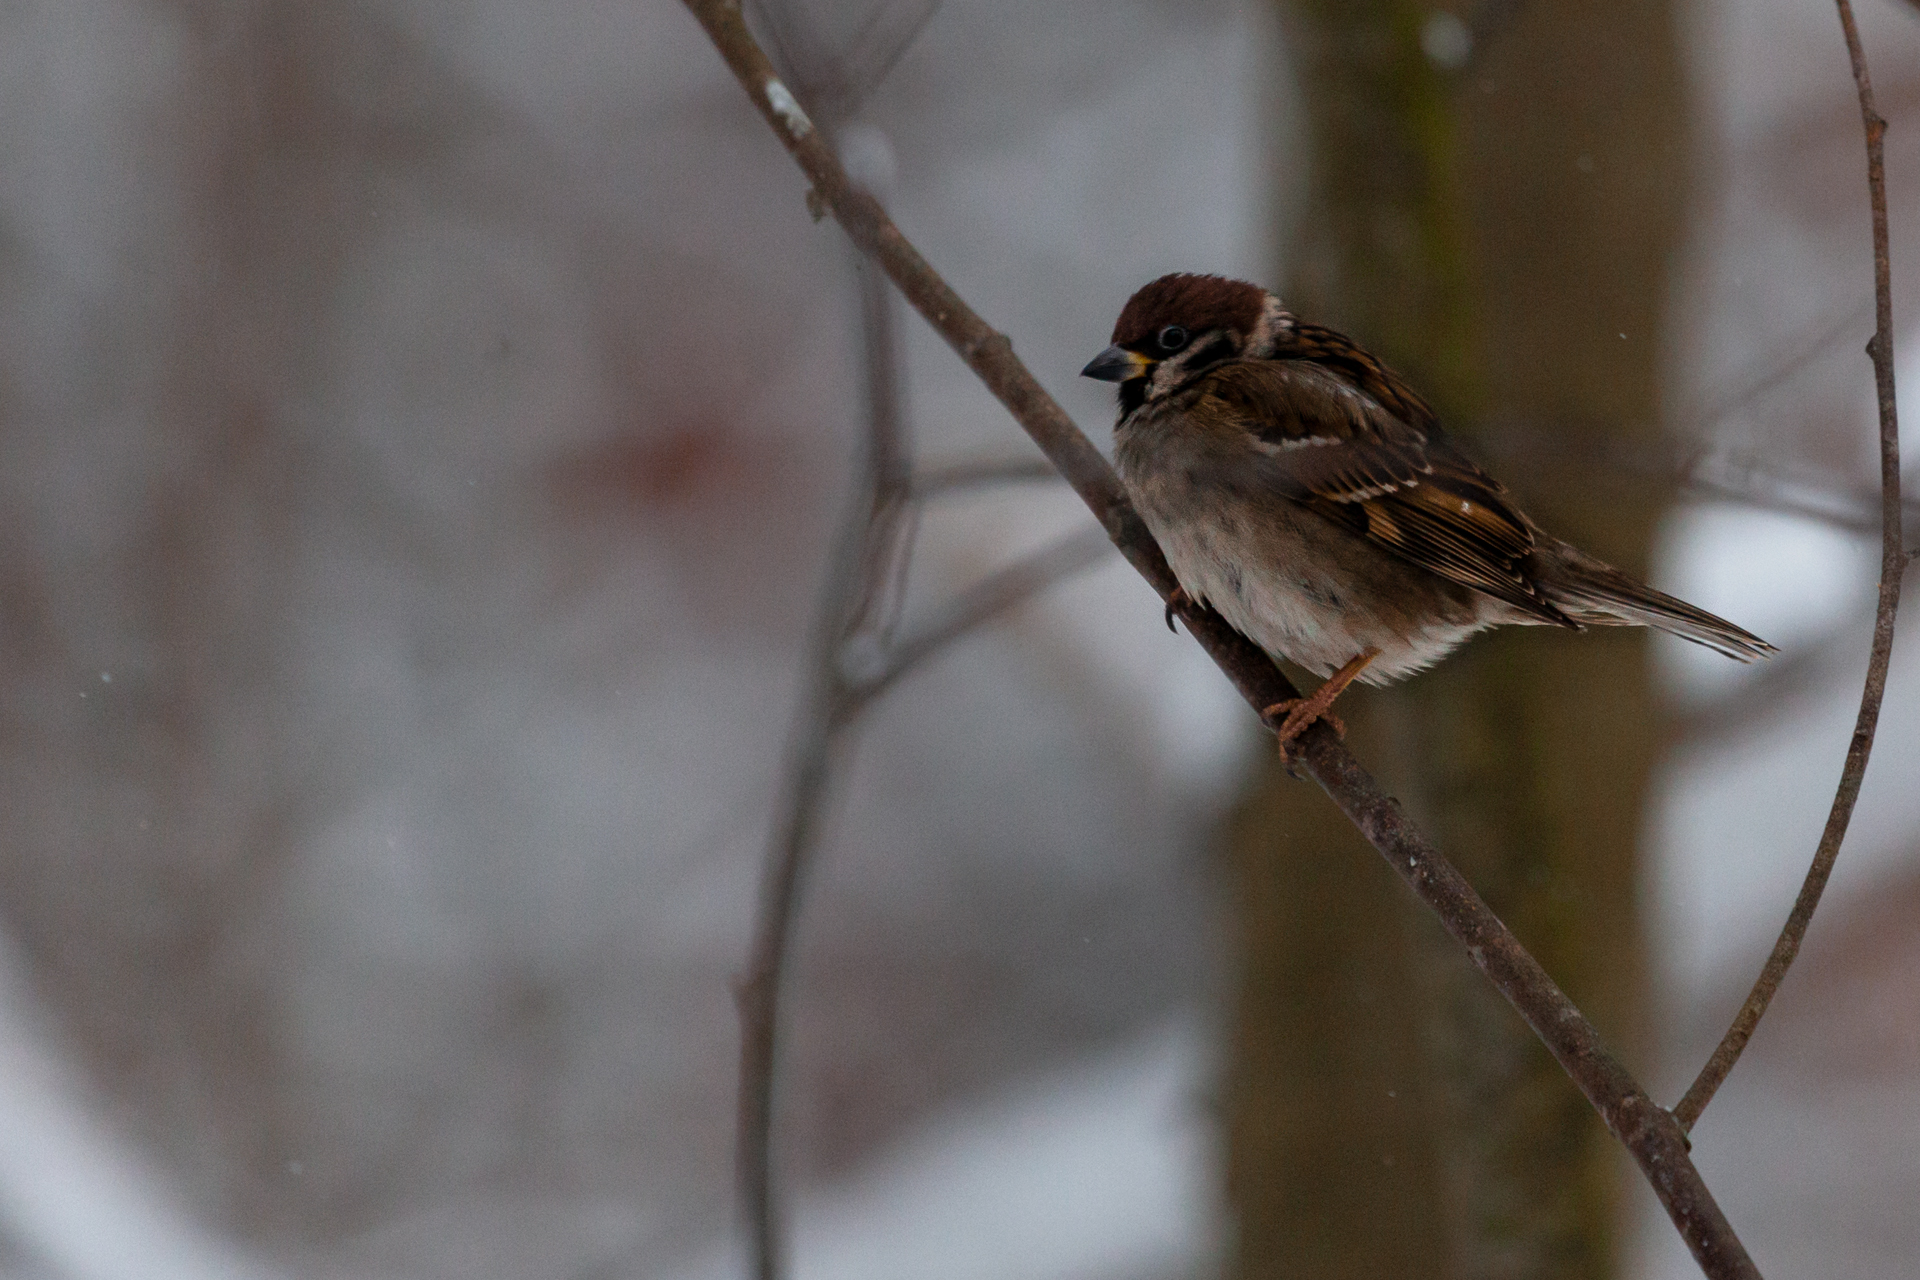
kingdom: Animalia
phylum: Chordata
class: Aves
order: Passeriformes
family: Passeridae
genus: Passer
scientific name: Passer montanus
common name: Eurasian tree sparrow
